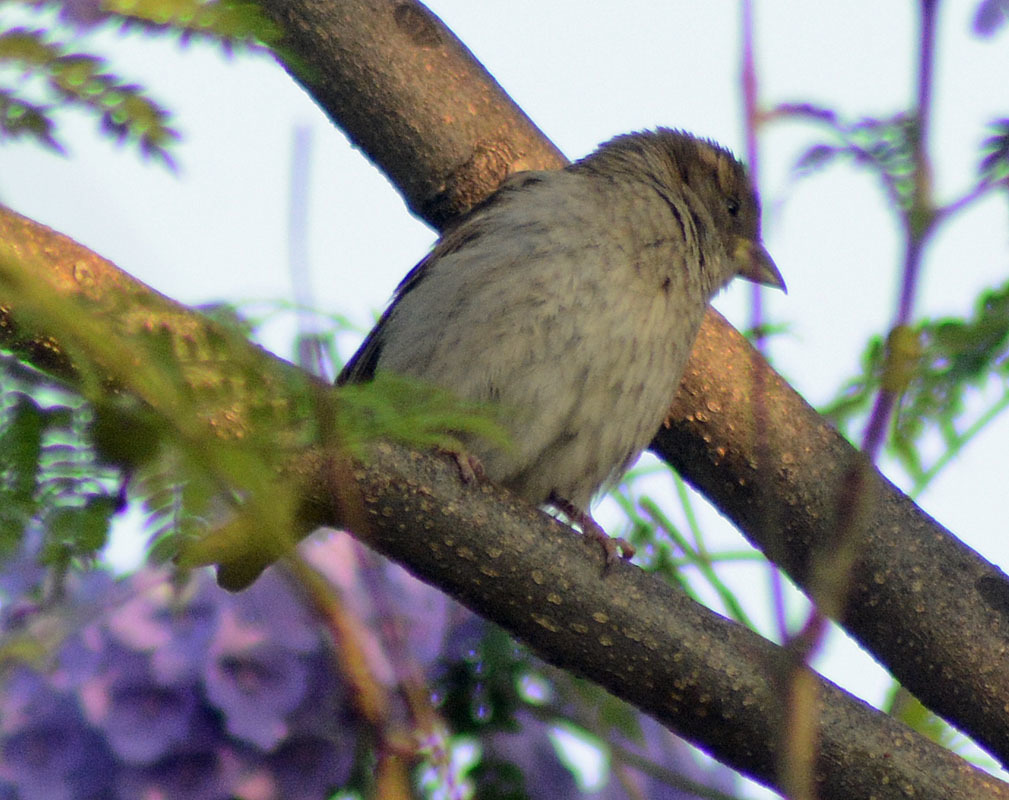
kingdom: Animalia
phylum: Chordata
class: Aves
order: Passeriformes
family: Passeridae
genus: Passer
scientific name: Passer domesticus
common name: House sparrow
